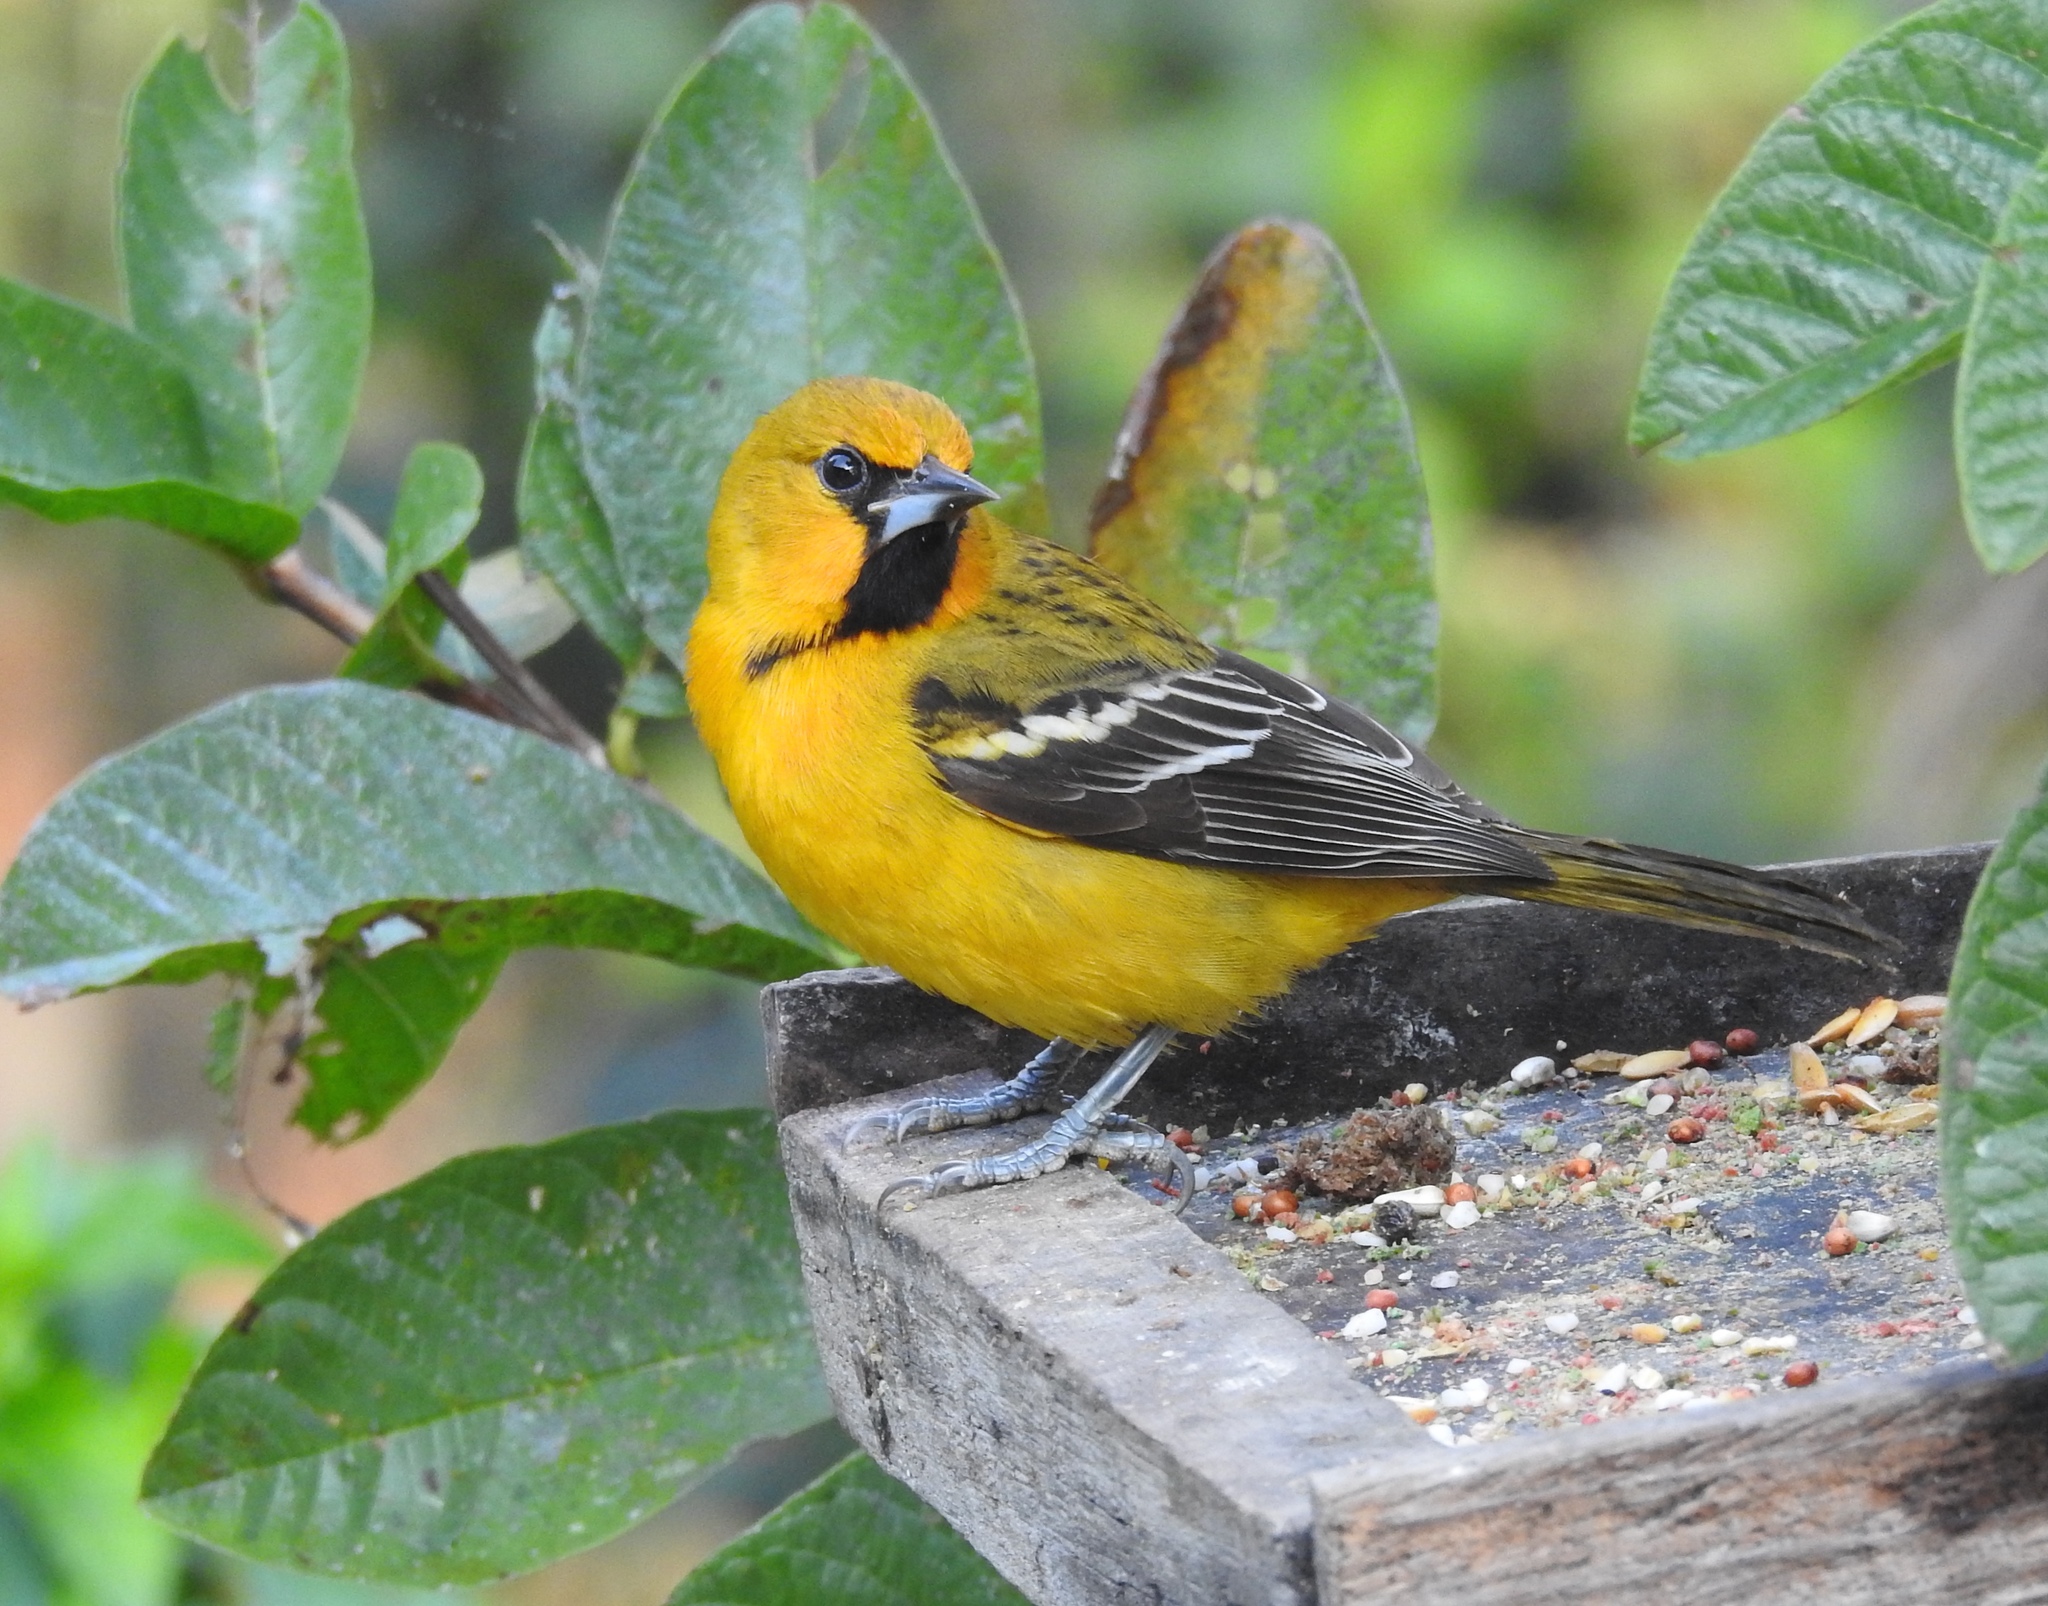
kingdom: Animalia
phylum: Chordata
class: Aves
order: Passeriformes
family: Icteridae
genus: Icterus
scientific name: Icterus pustulatus
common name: Streak-backed oriole
